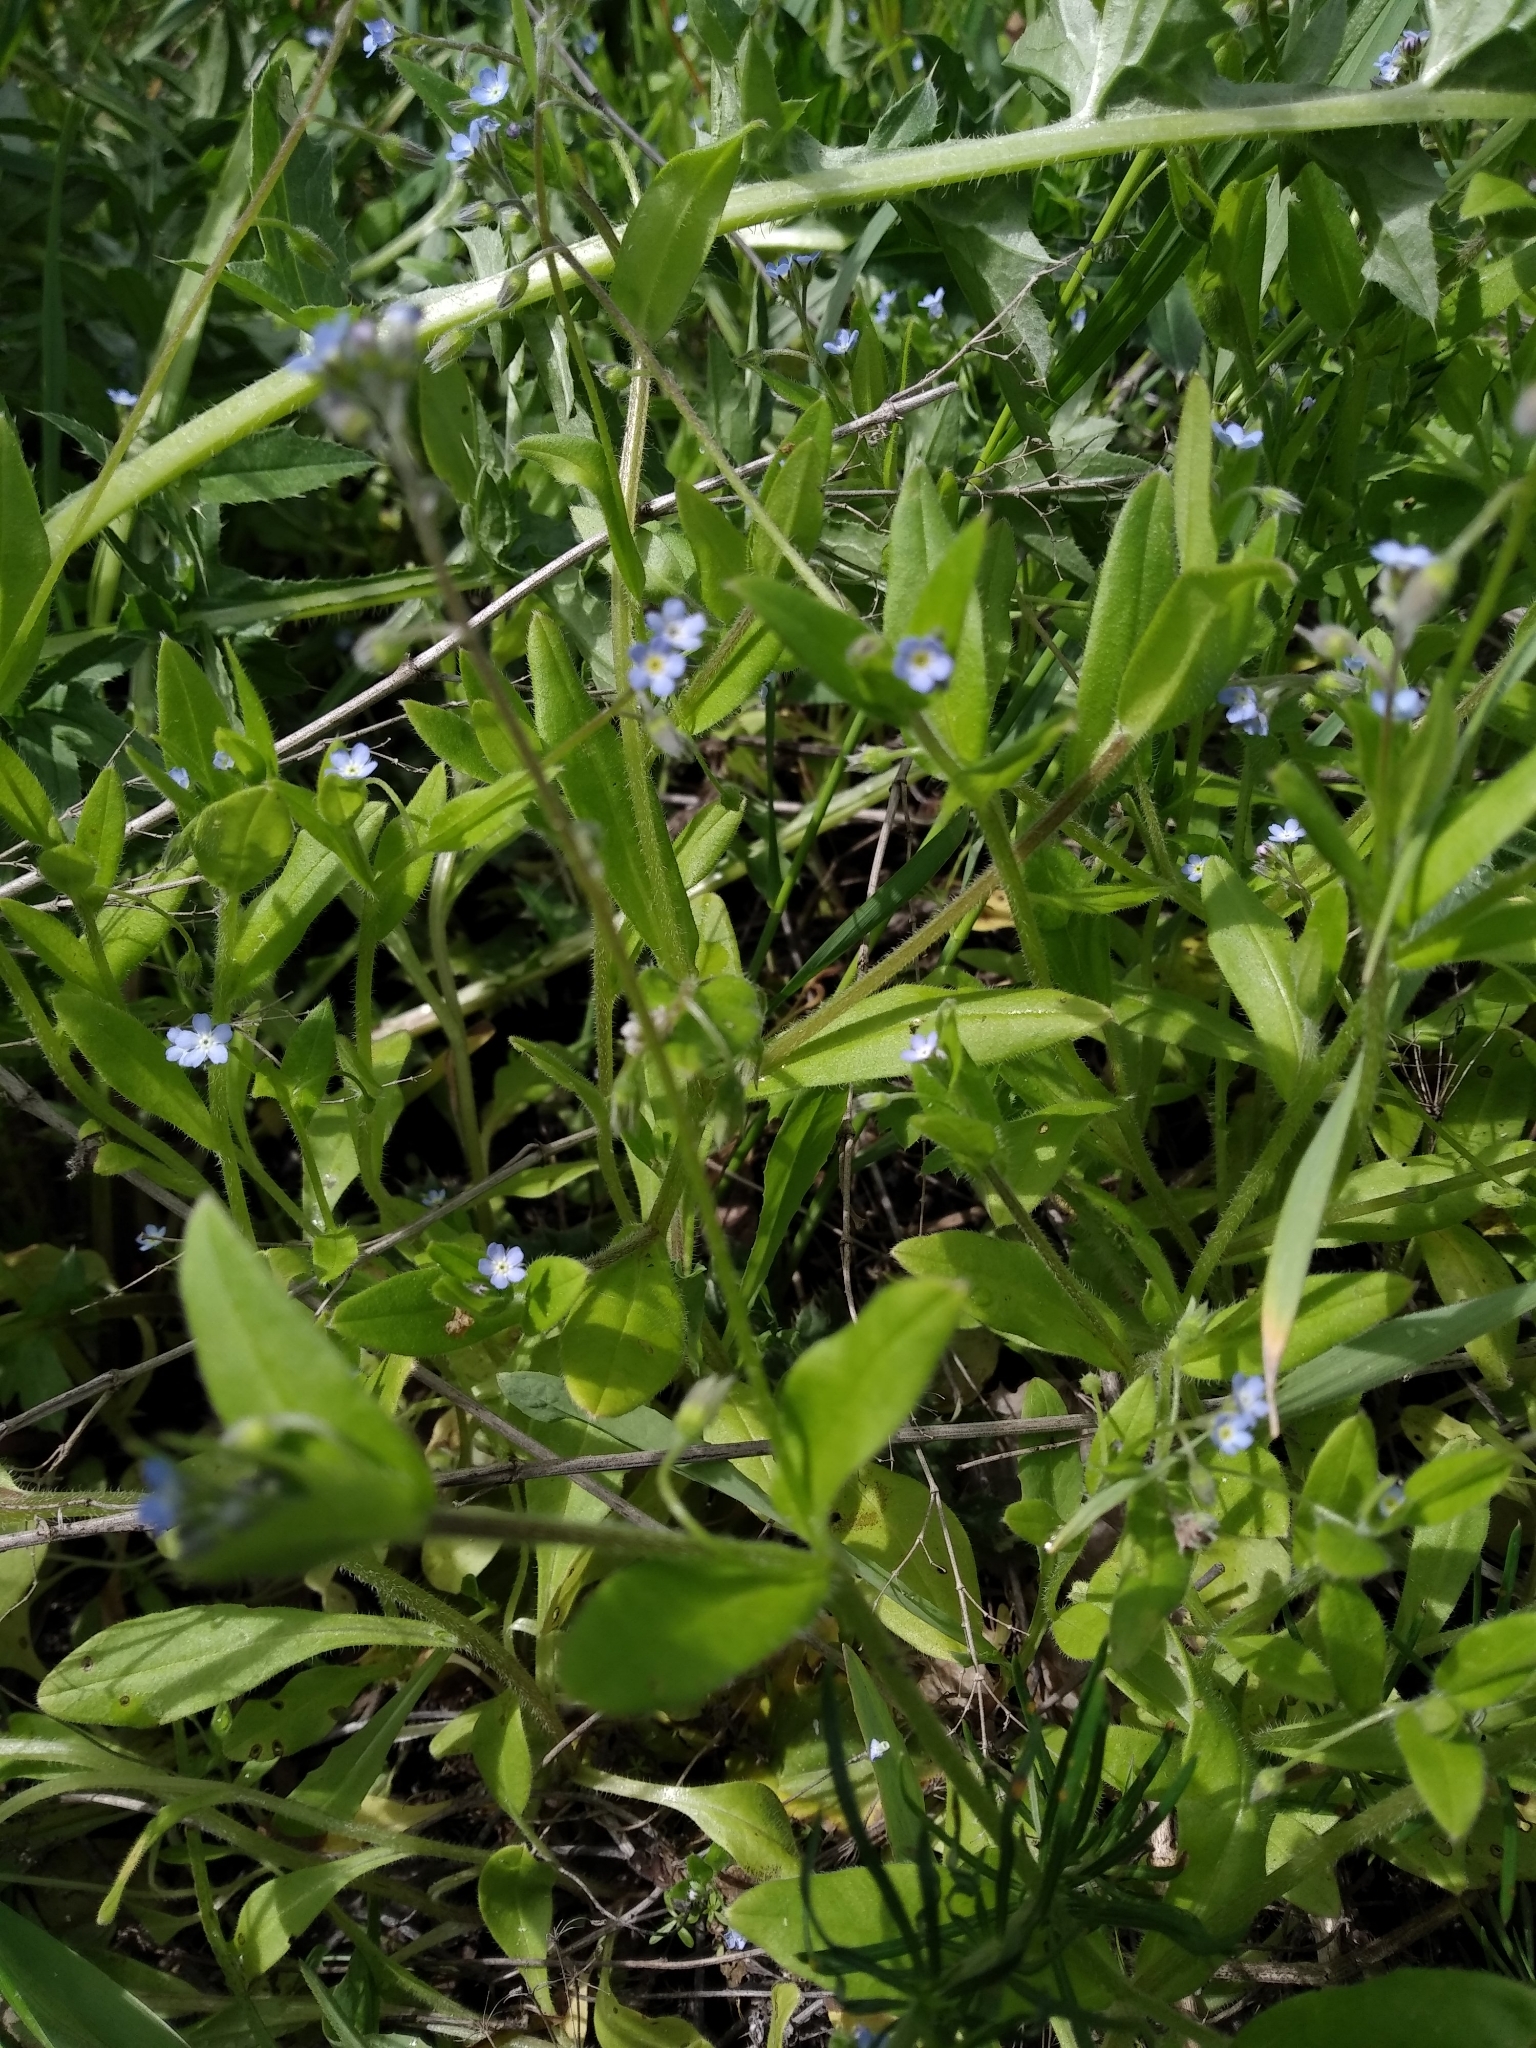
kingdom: Plantae
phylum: Tracheophyta
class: Magnoliopsida
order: Boraginales
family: Boraginaceae
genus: Myosotis
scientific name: Myosotis sparsiflora
